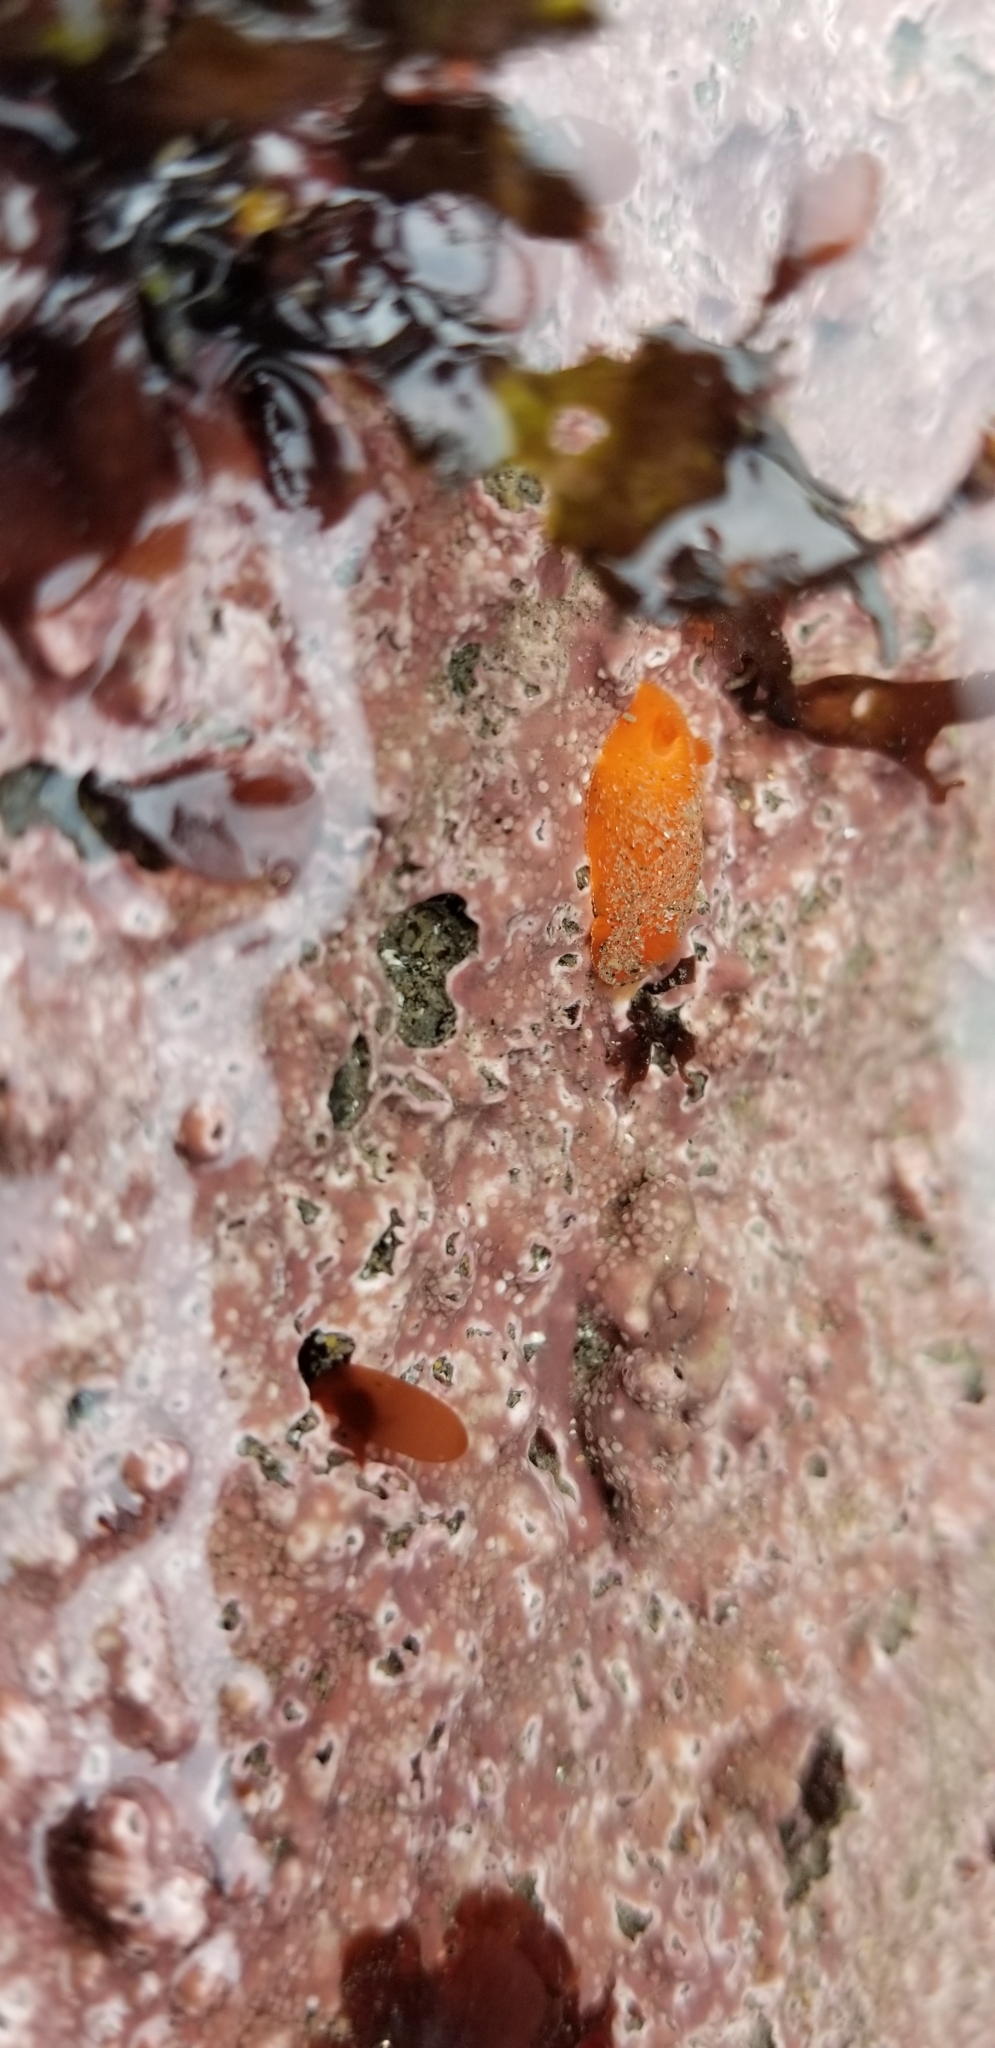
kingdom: Animalia
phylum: Mollusca
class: Gastropoda
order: Nudibranchia
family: Discodorididae
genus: Rostanga
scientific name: Rostanga pulchra
